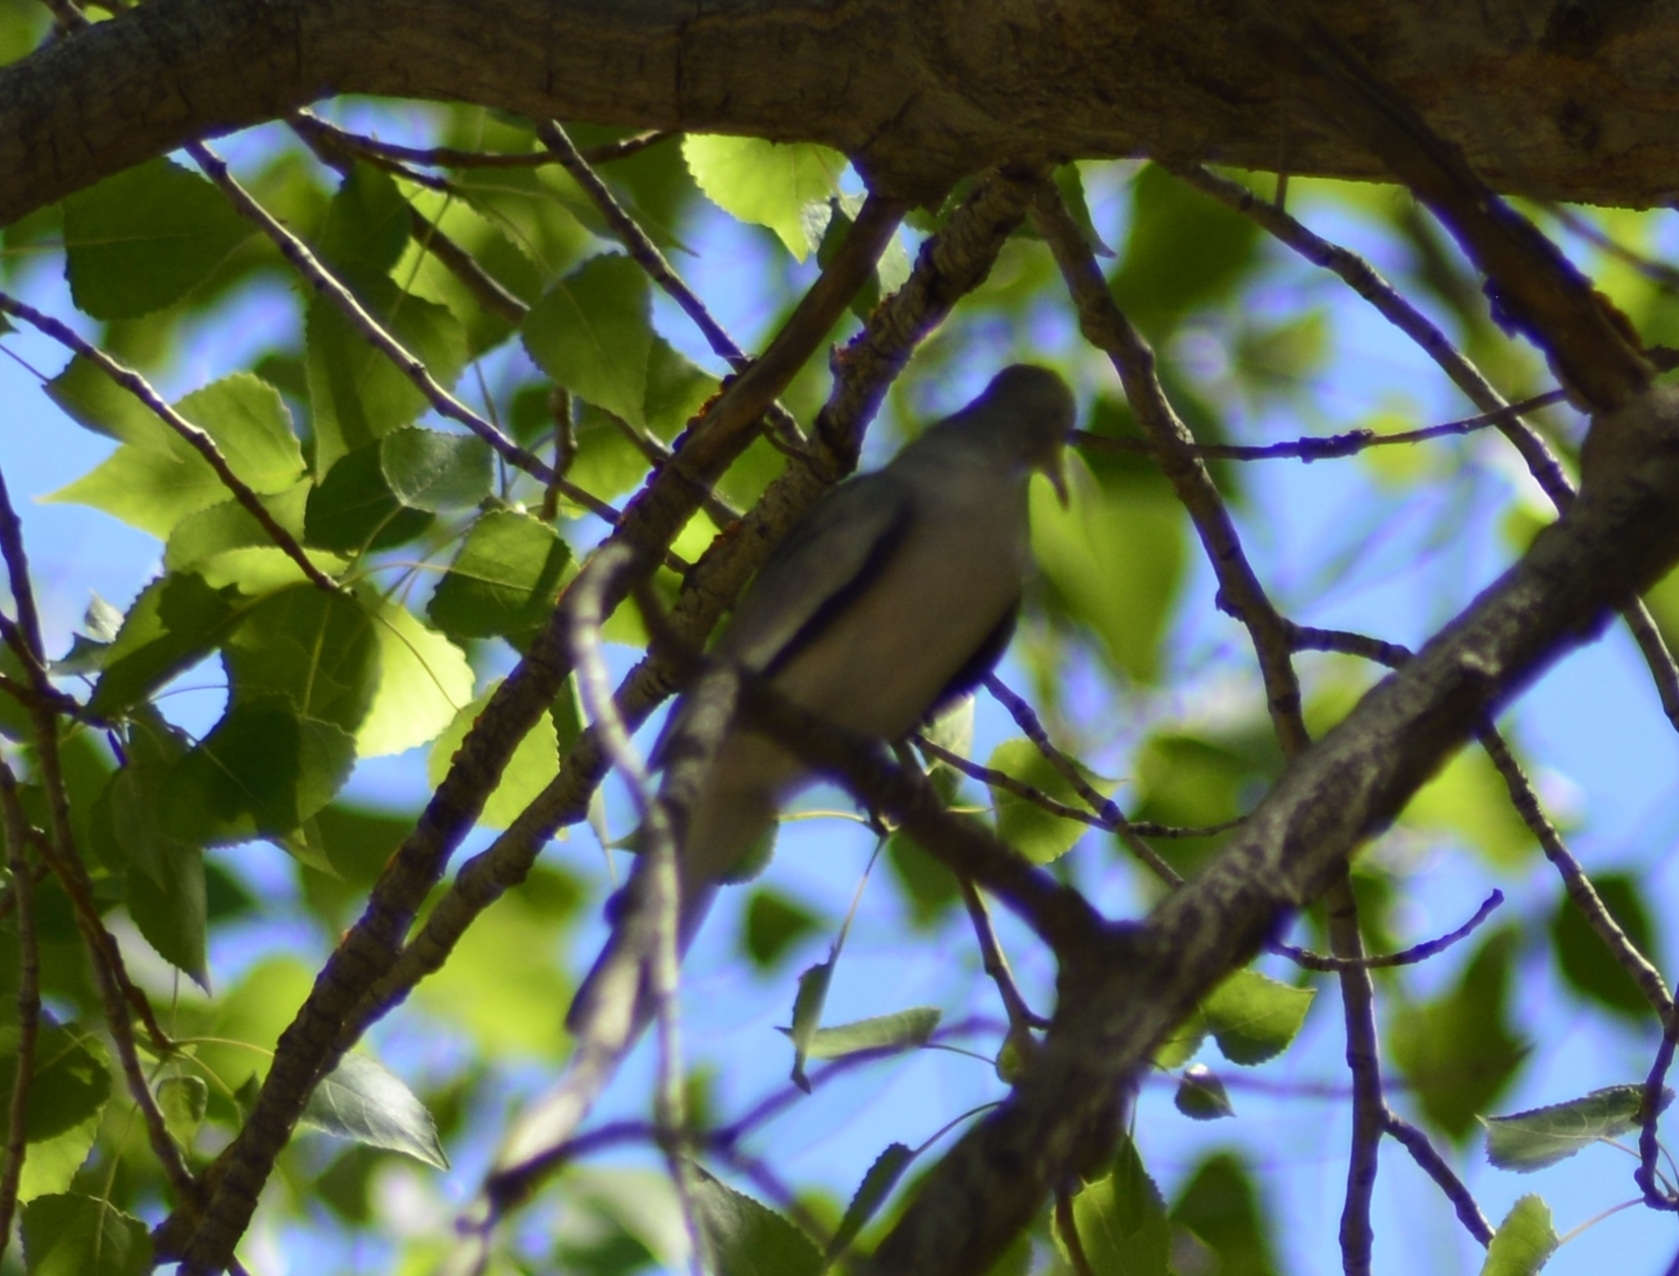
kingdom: Animalia
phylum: Chordata
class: Aves
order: Columbiformes
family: Columbidae
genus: Columbina
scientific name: Columbina picui
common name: Picui ground dove
